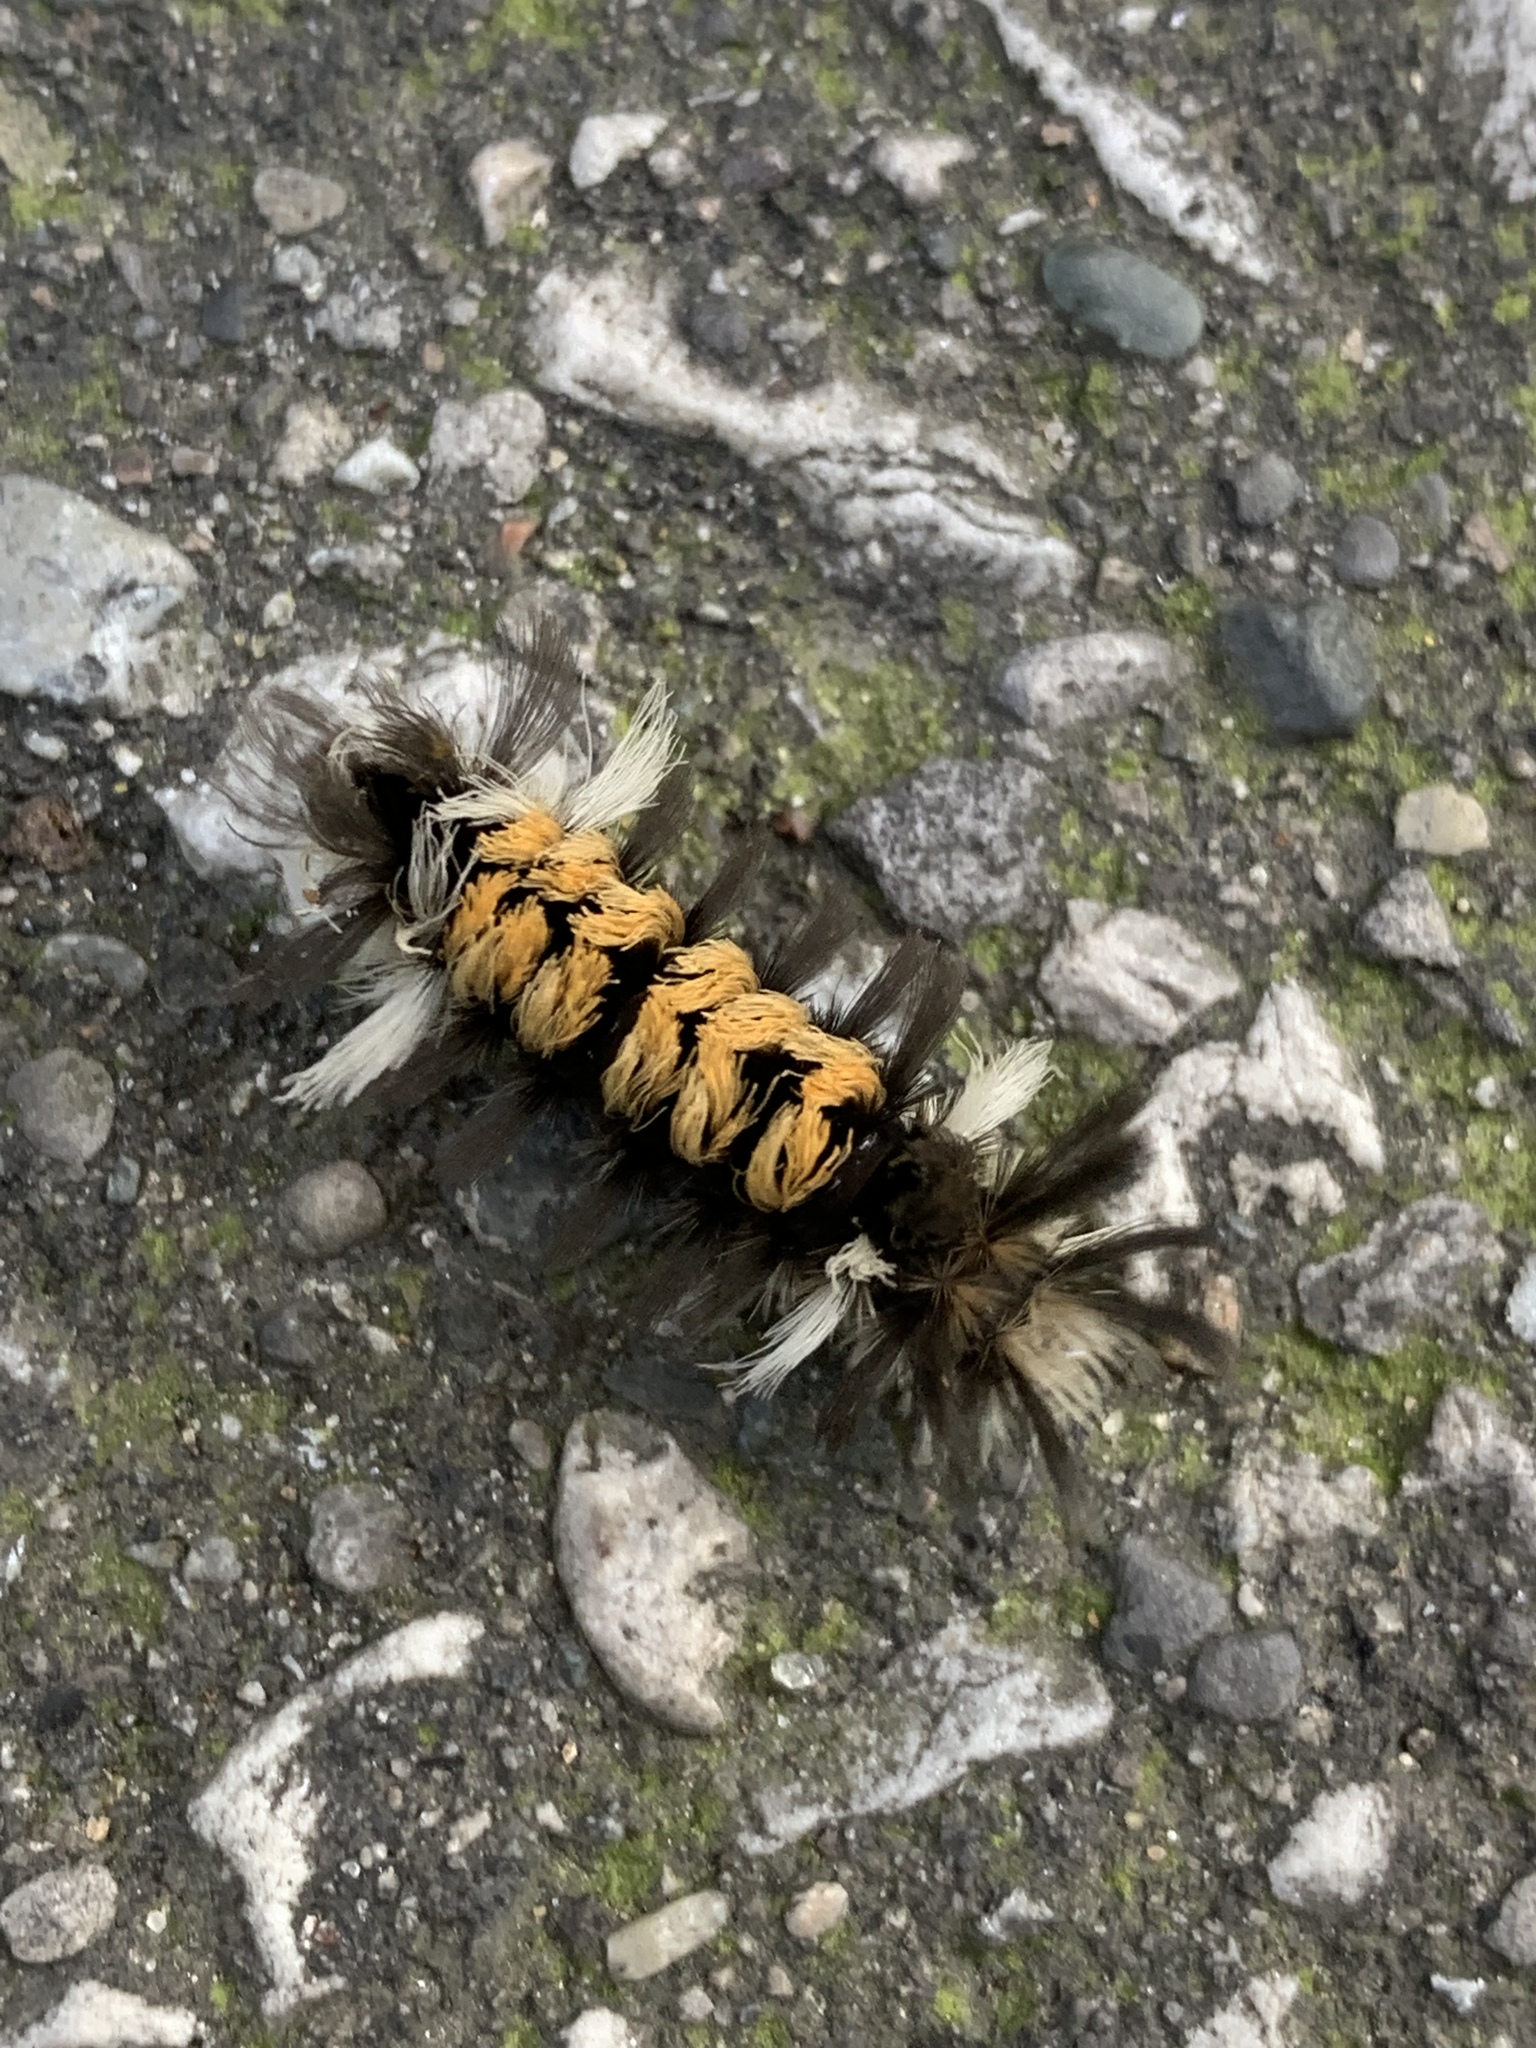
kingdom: Animalia
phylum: Arthropoda
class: Insecta
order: Lepidoptera
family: Erebidae
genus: Euchaetes
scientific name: Euchaetes egle
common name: Milkweed tussock moth
